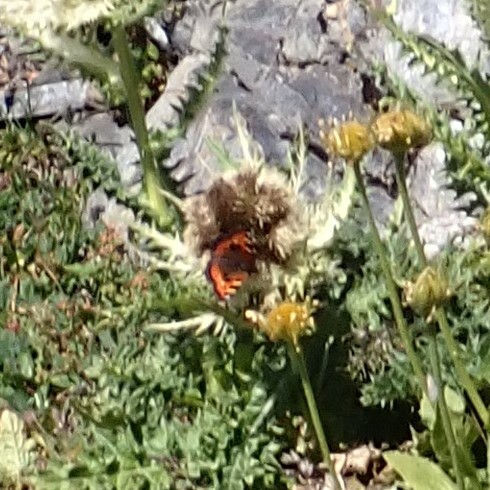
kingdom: Animalia
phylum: Arthropoda
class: Insecta
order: Lepidoptera
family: Nymphalidae
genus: Aglais
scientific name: Aglais urticae
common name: Small tortoiseshell
